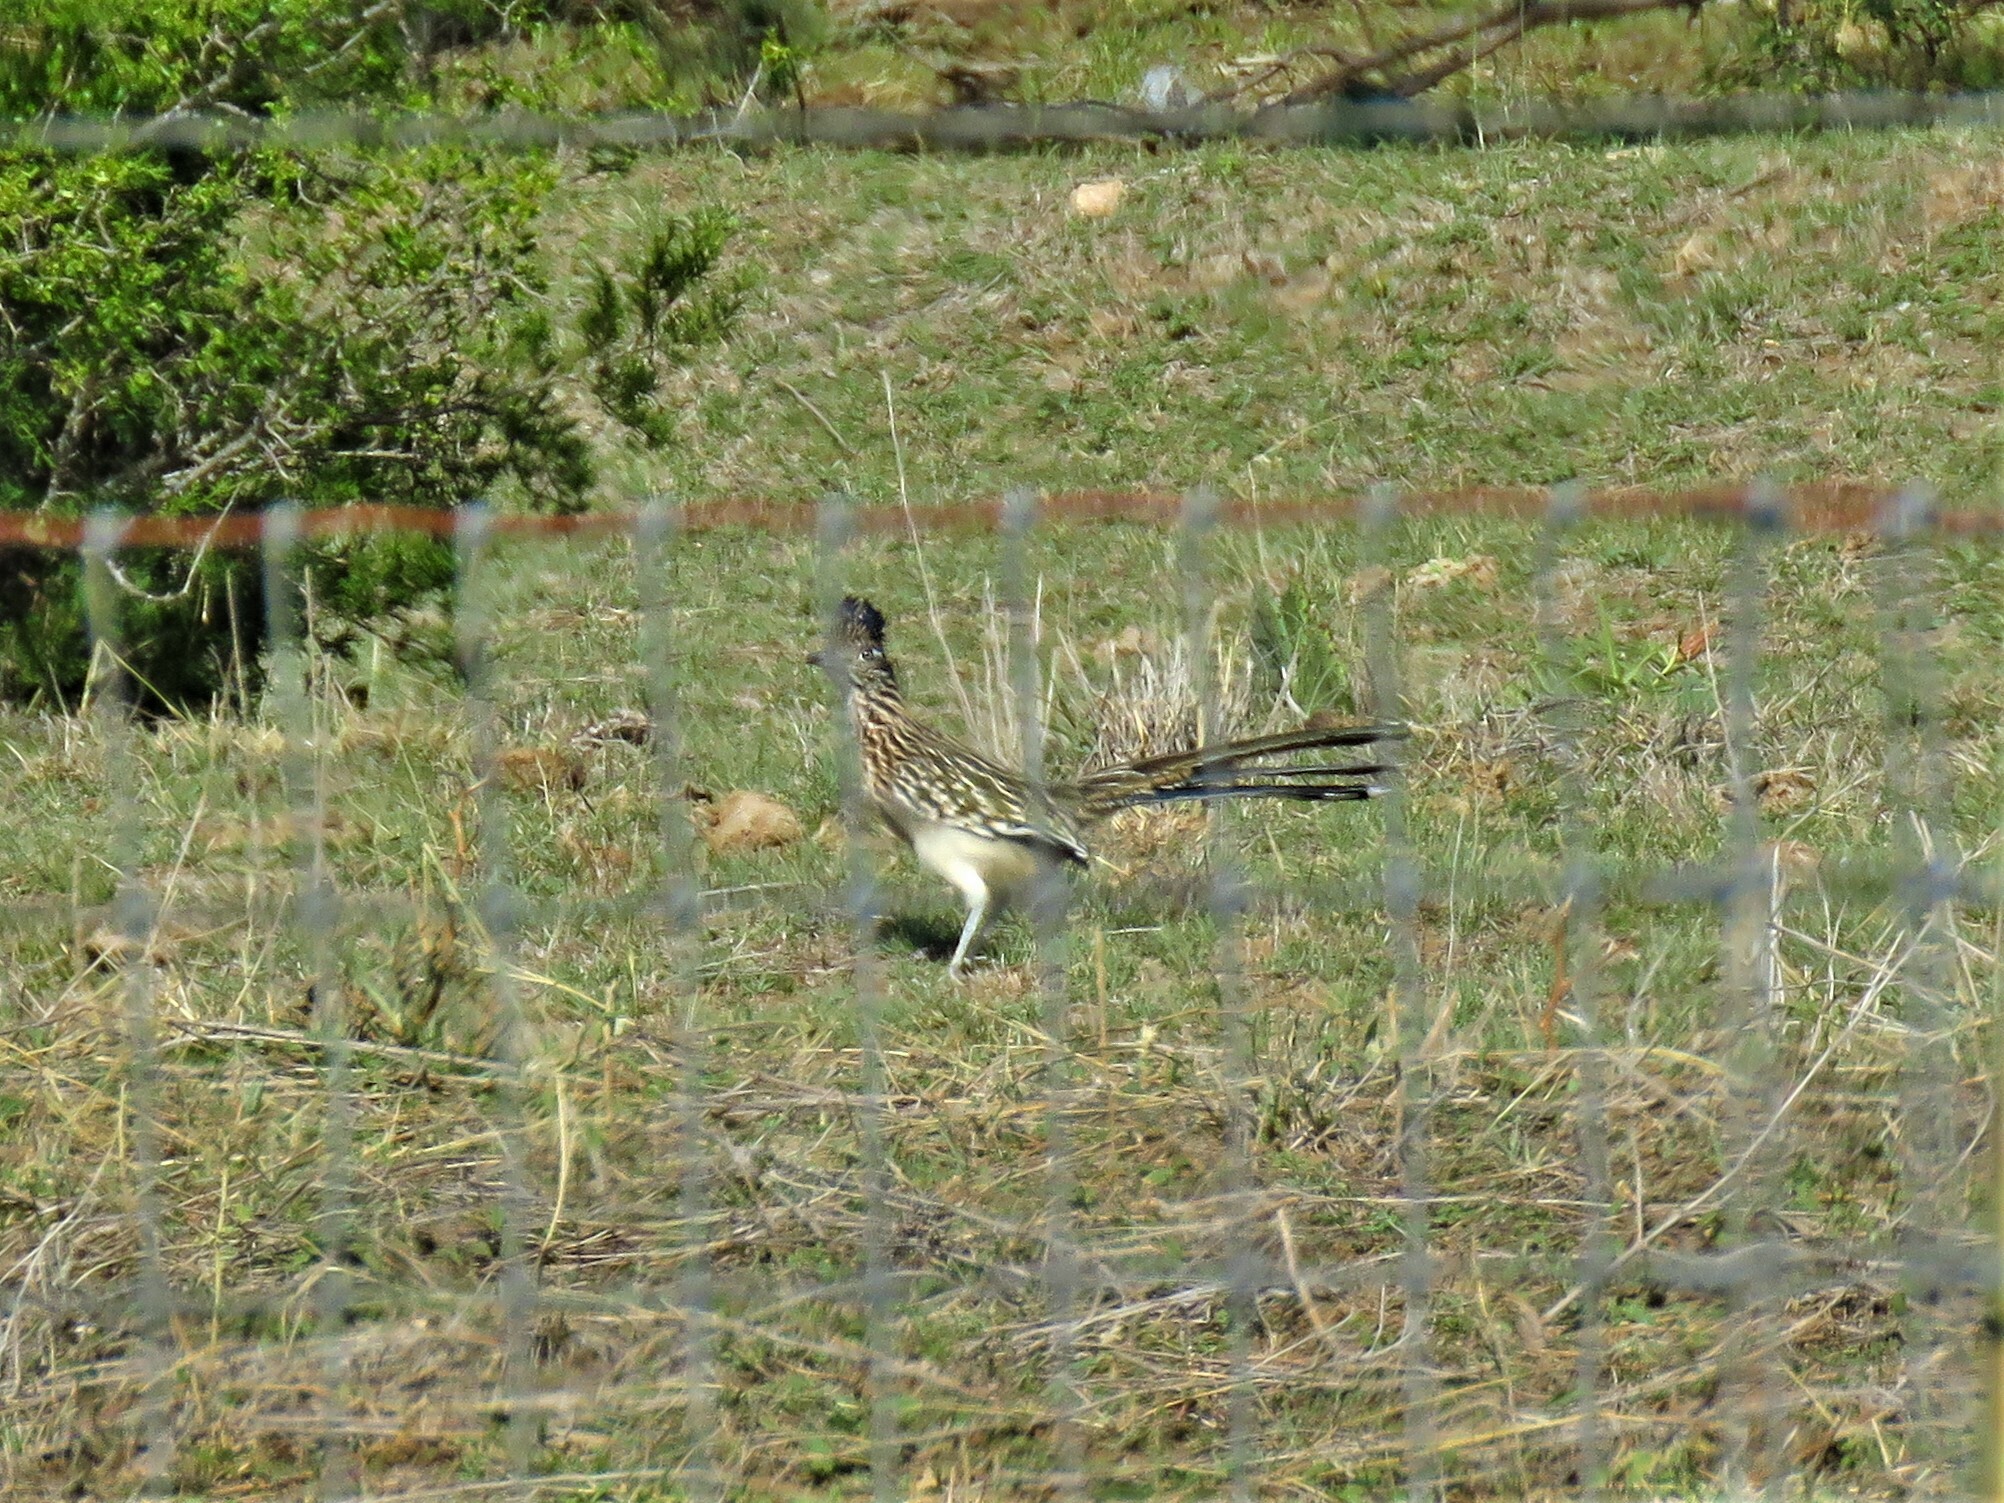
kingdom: Animalia
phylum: Chordata
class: Aves
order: Cuculiformes
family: Cuculidae
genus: Geococcyx
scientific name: Geococcyx californianus
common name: Greater roadrunner
